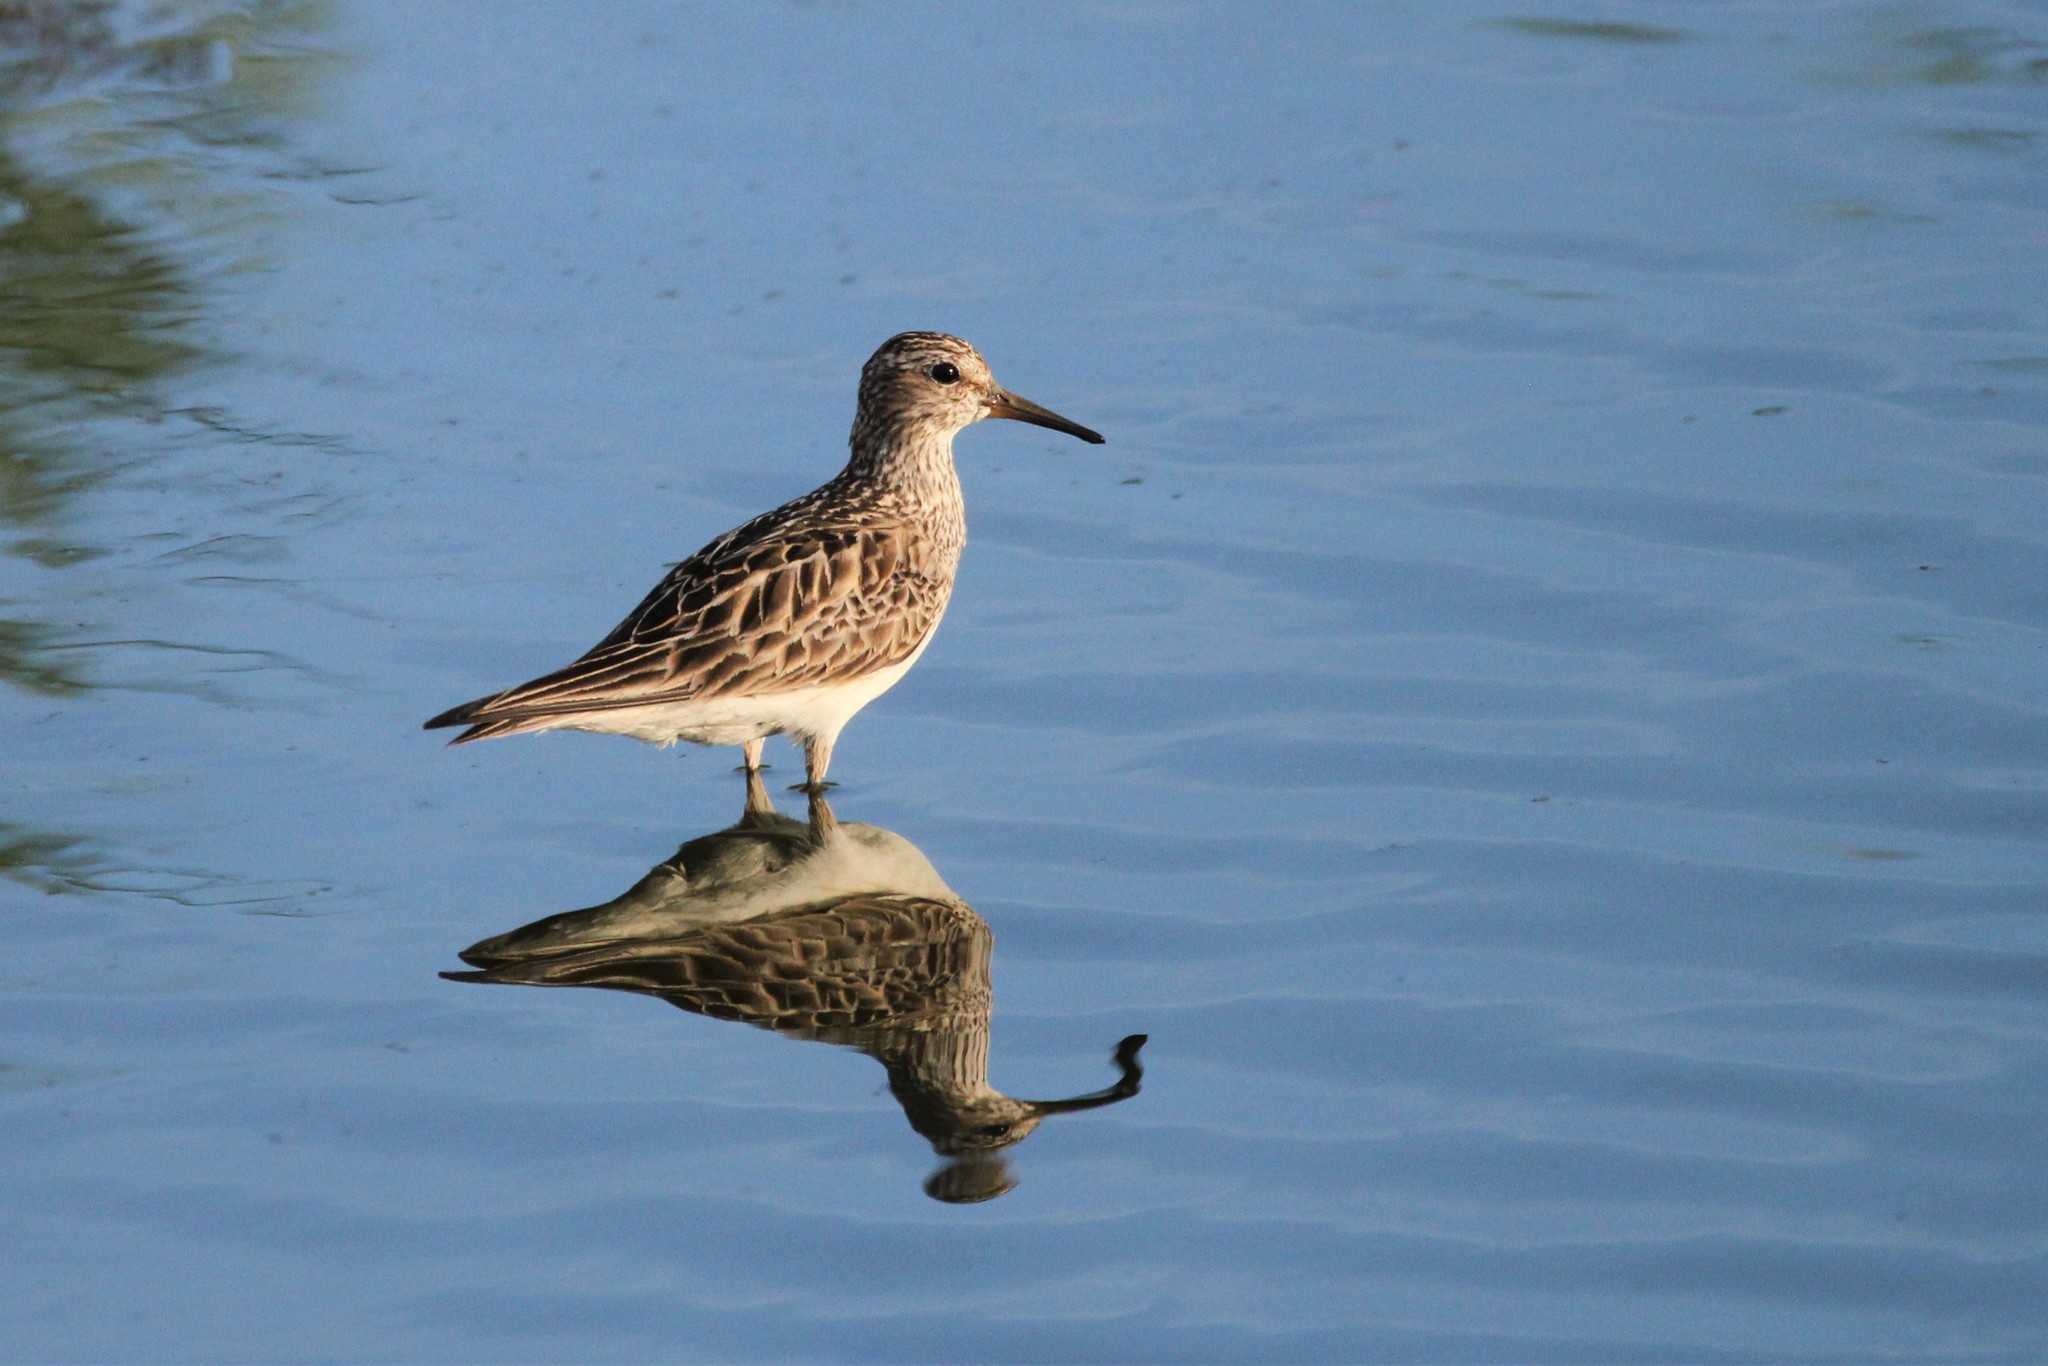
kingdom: Animalia
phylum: Chordata
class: Aves
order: Charadriiformes
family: Scolopacidae
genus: Calidris
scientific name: Calidris melanotos
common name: Pectoral sandpiper
